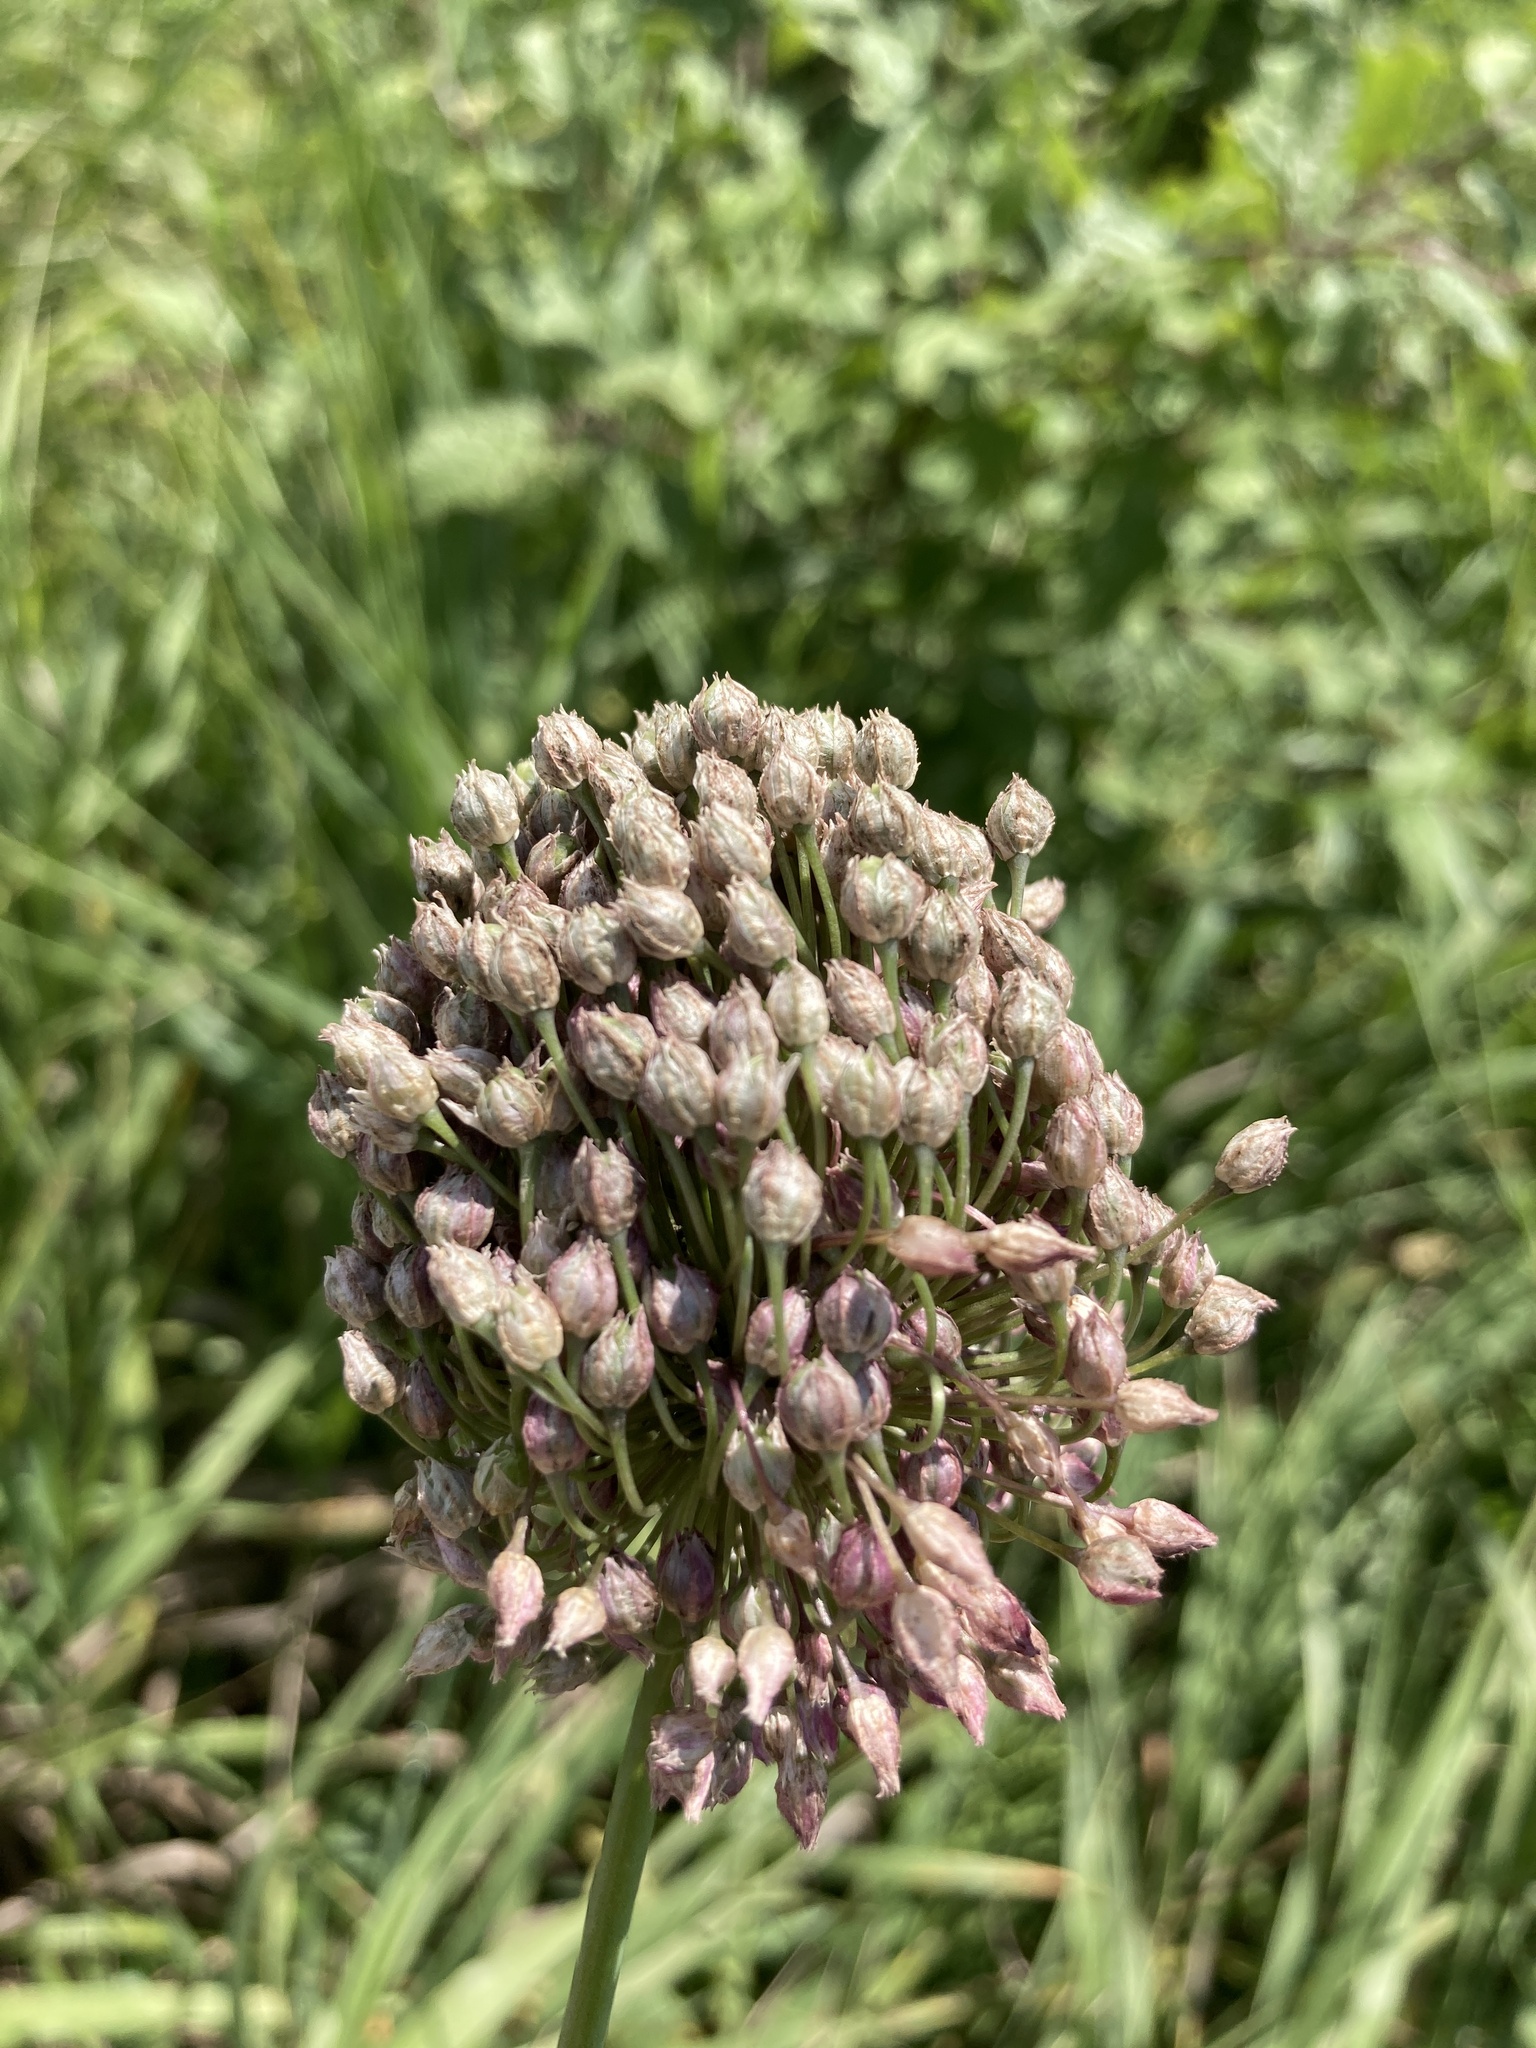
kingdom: Plantae
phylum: Tracheophyta
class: Liliopsida
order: Asparagales
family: Amaryllidaceae
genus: Allium
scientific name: Allium rotundum
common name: Sand leek
